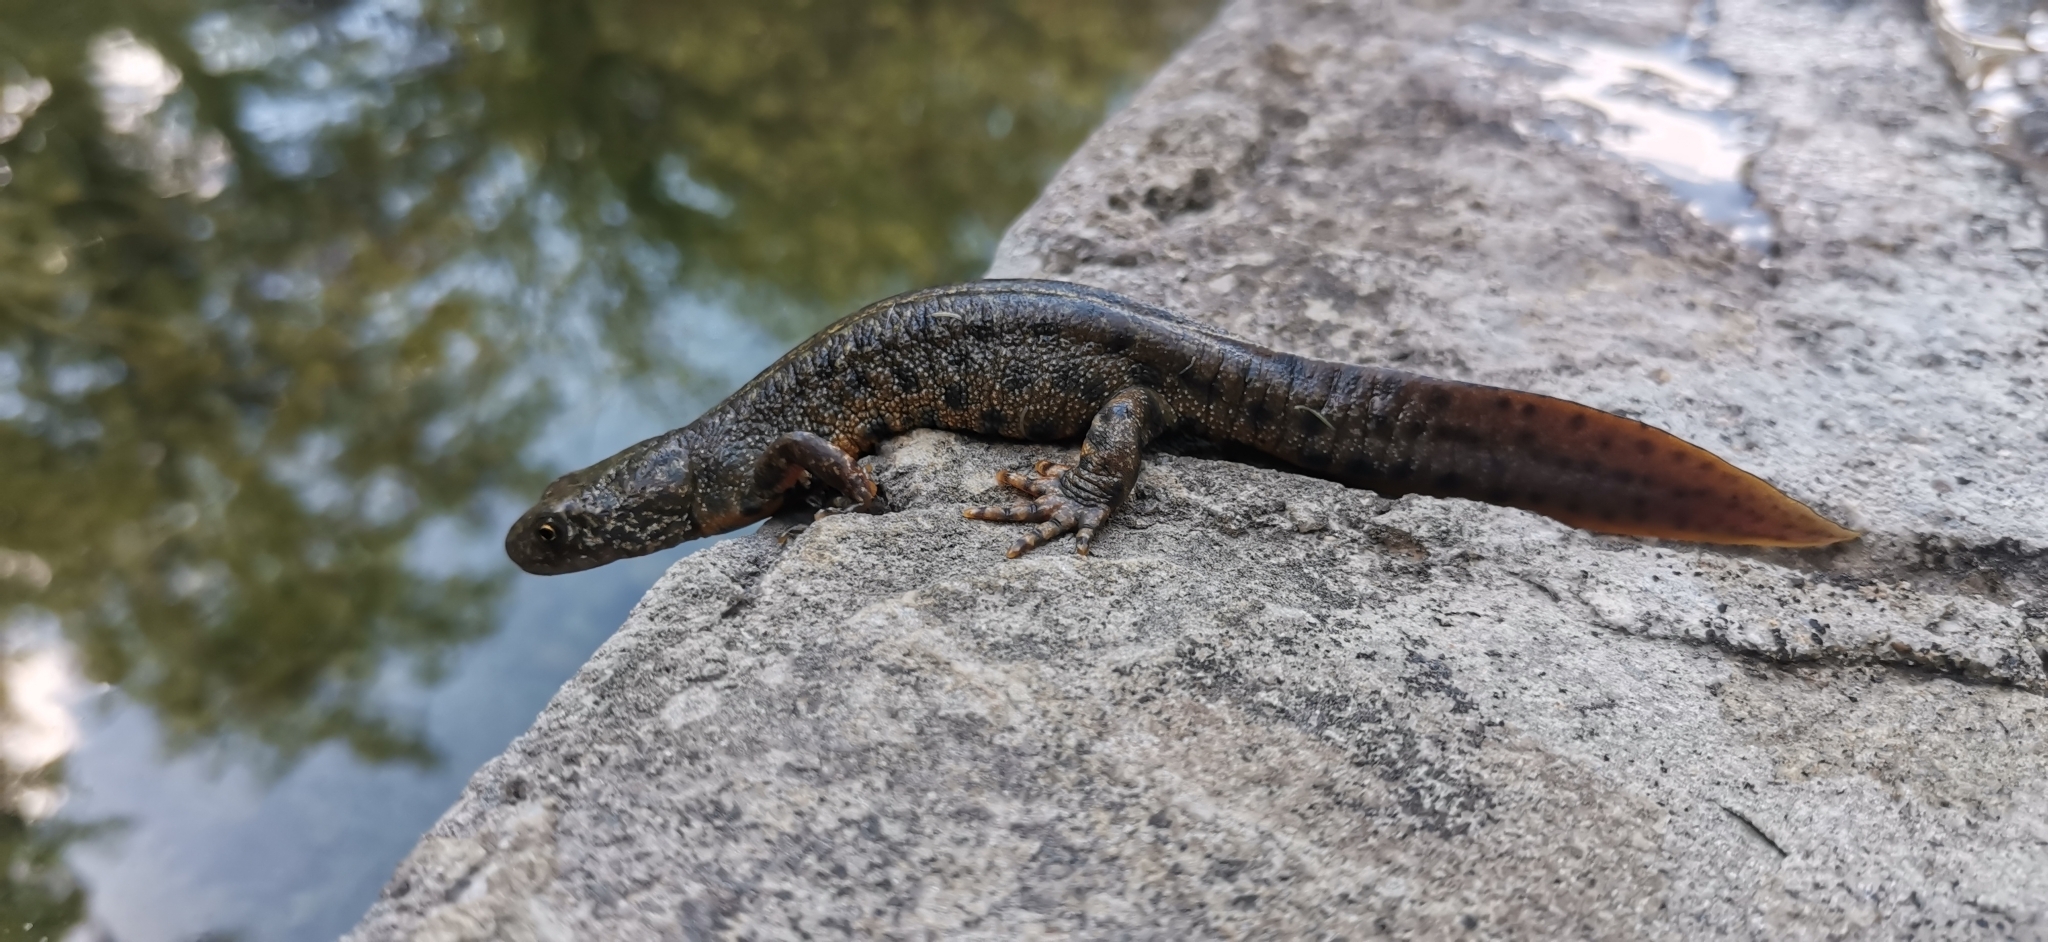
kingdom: Animalia
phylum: Chordata
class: Amphibia
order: Caudata
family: Salamandridae
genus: Triturus
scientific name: Triturus carnifex
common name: Italian crested newt
